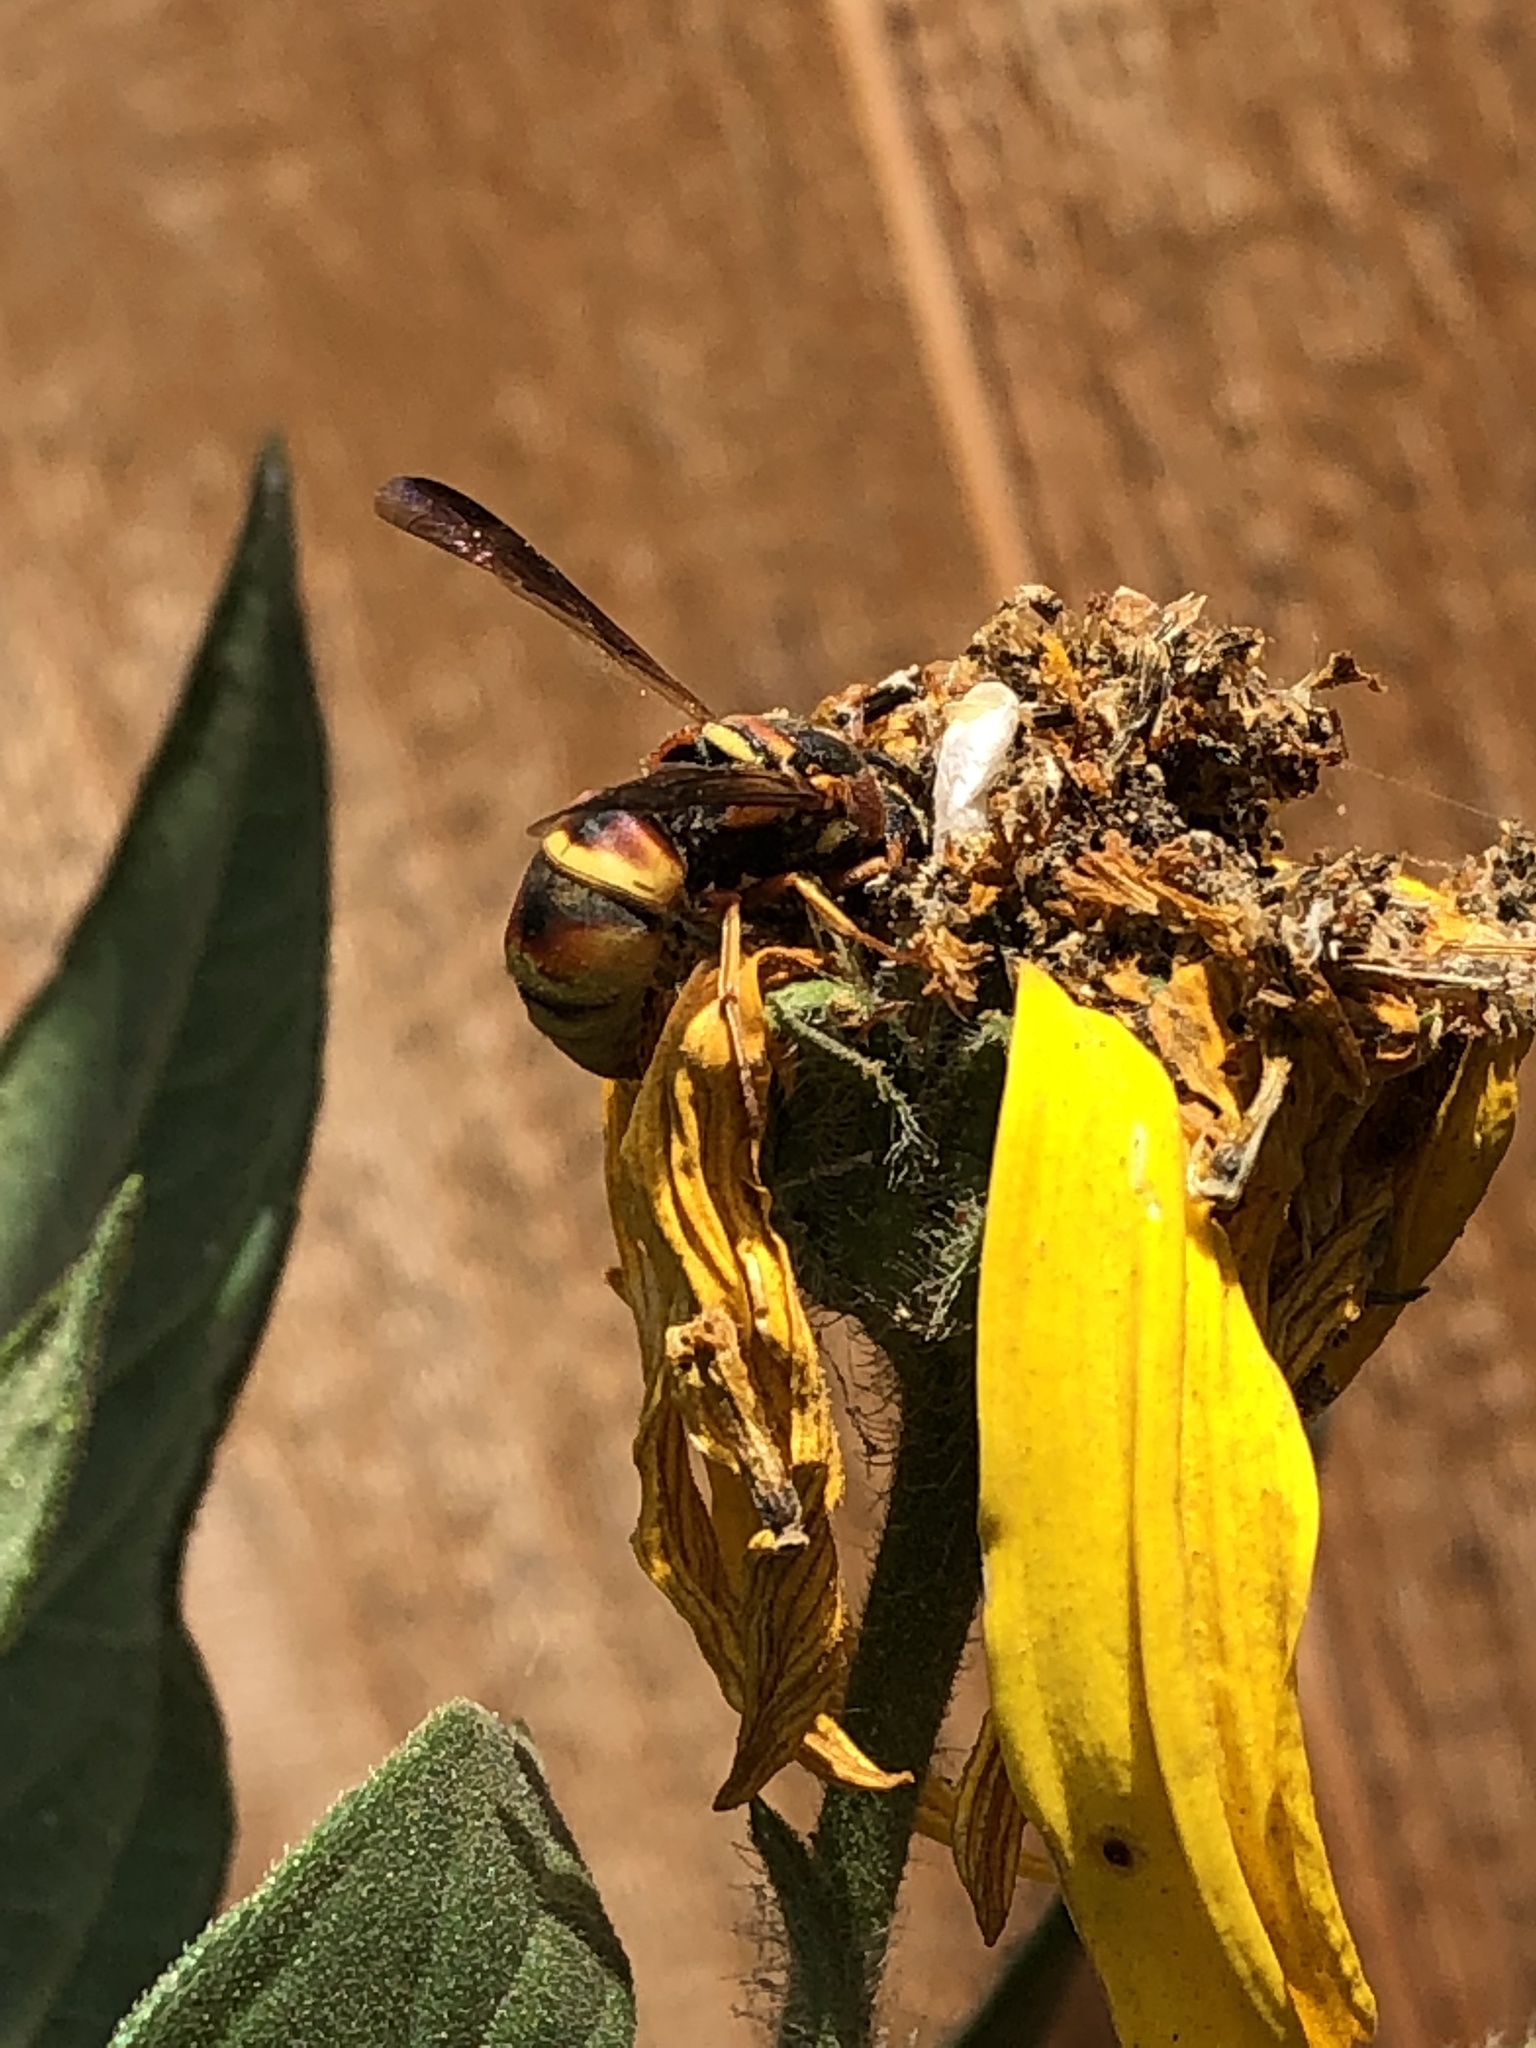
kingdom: Animalia
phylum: Arthropoda
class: Insecta
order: Hymenoptera
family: Eumenidae
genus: Euodynerus
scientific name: Euodynerus hidalgo
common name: Wasp
